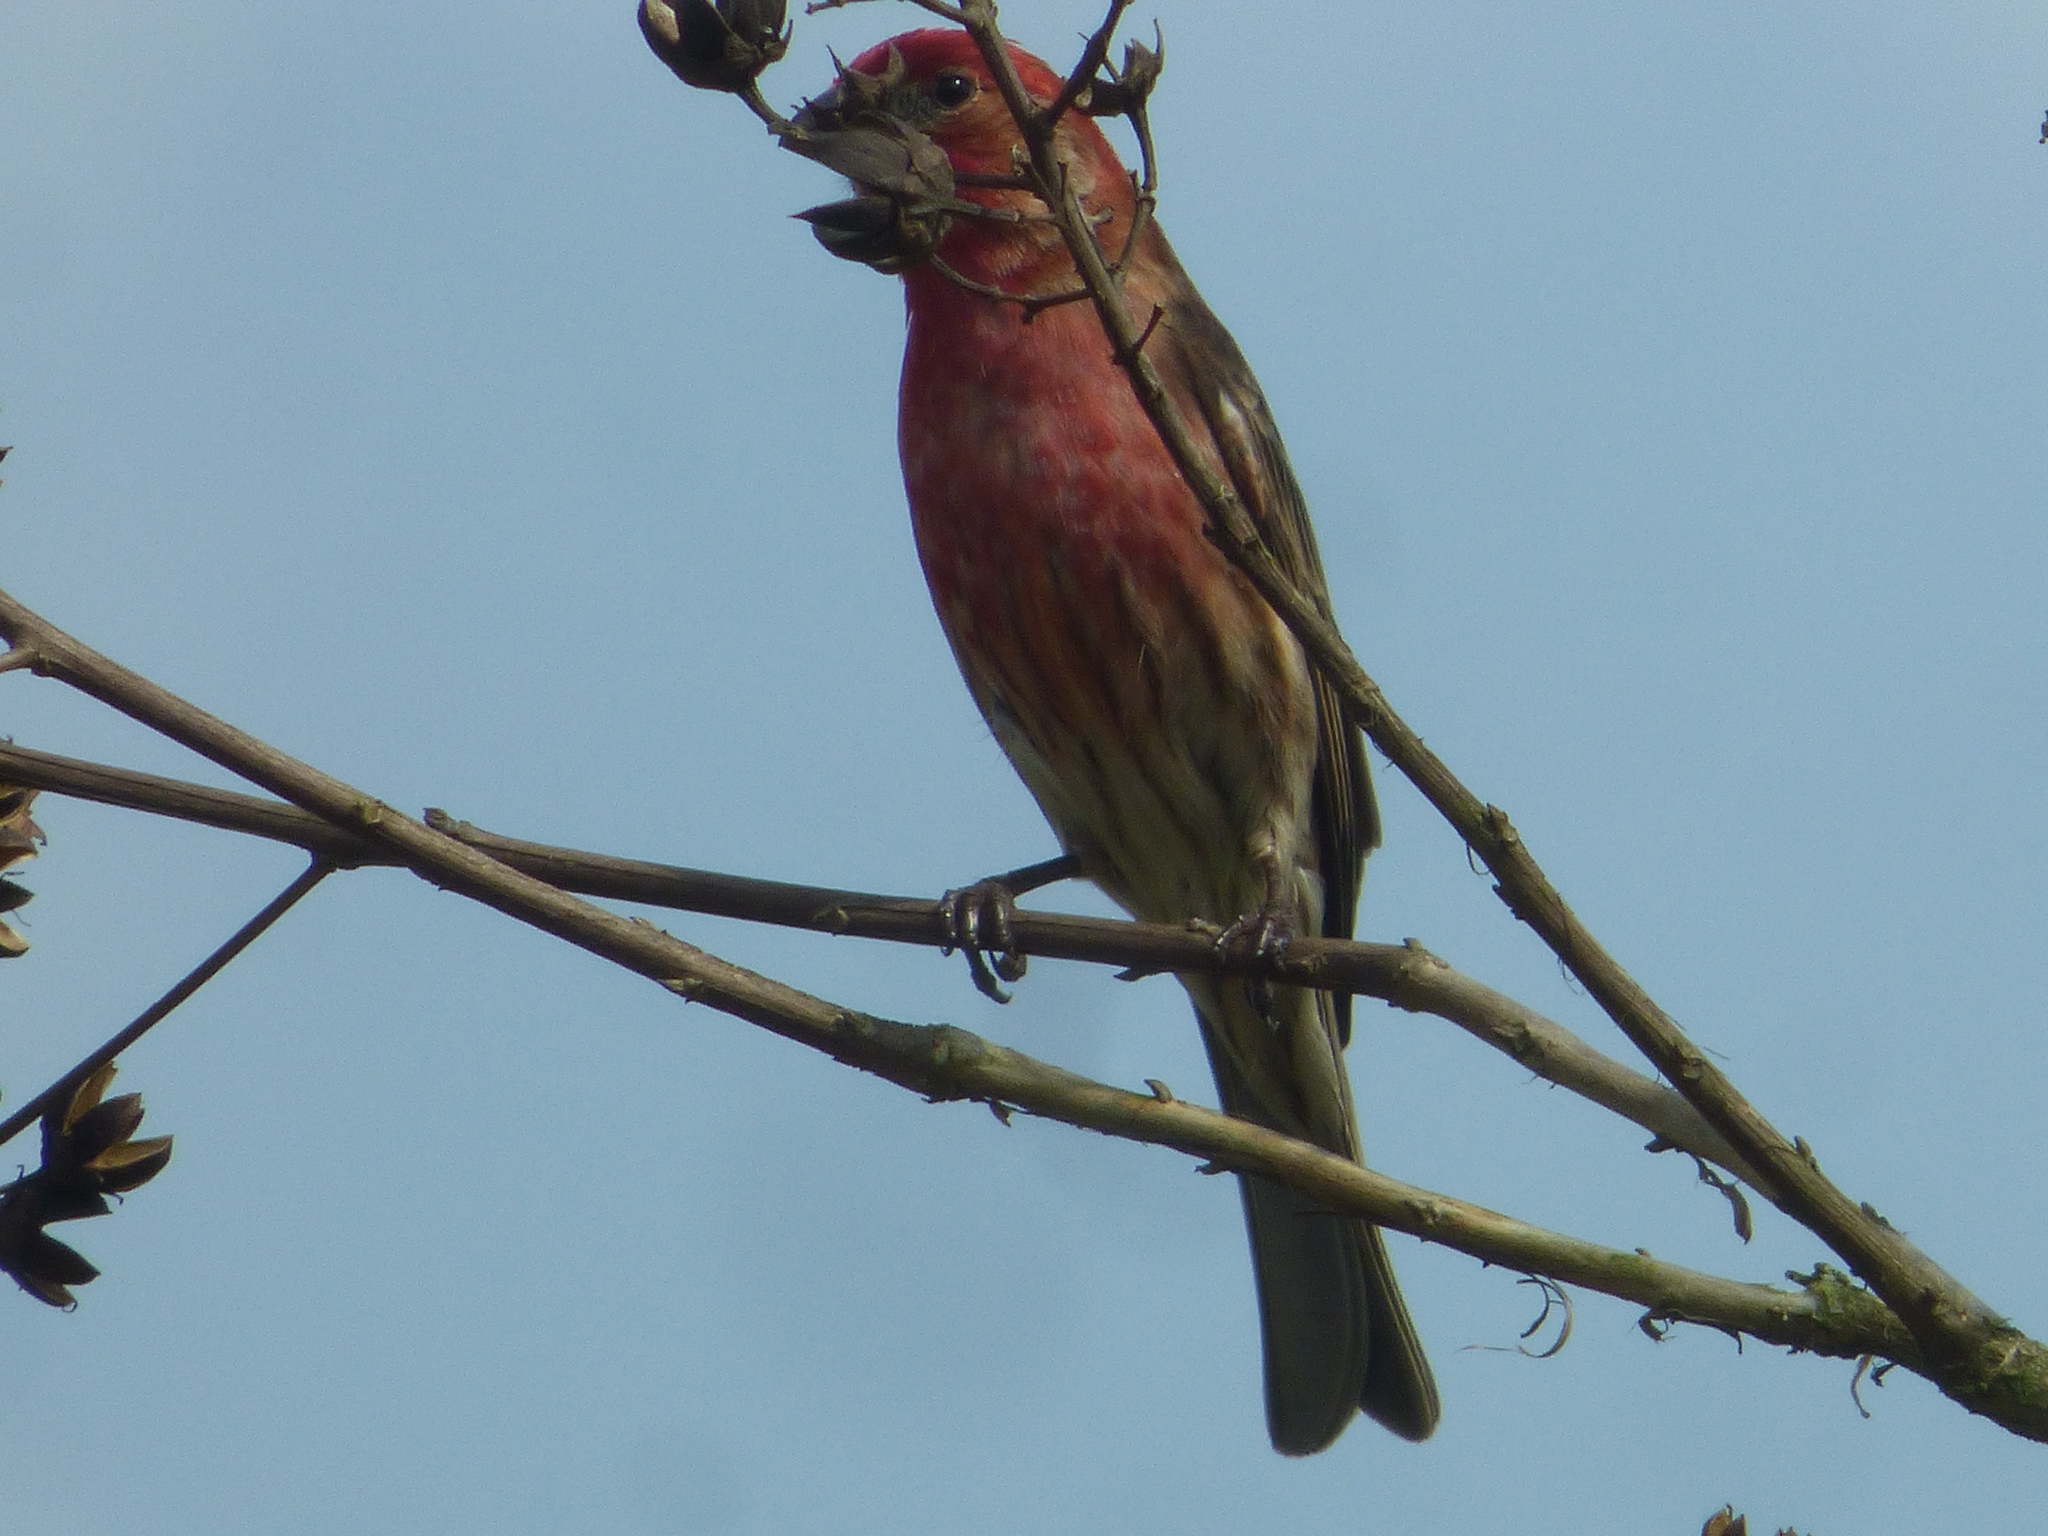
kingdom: Animalia
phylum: Chordata
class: Aves
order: Passeriformes
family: Fringillidae
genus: Haemorhous
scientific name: Haemorhous mexicanus
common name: House finch
